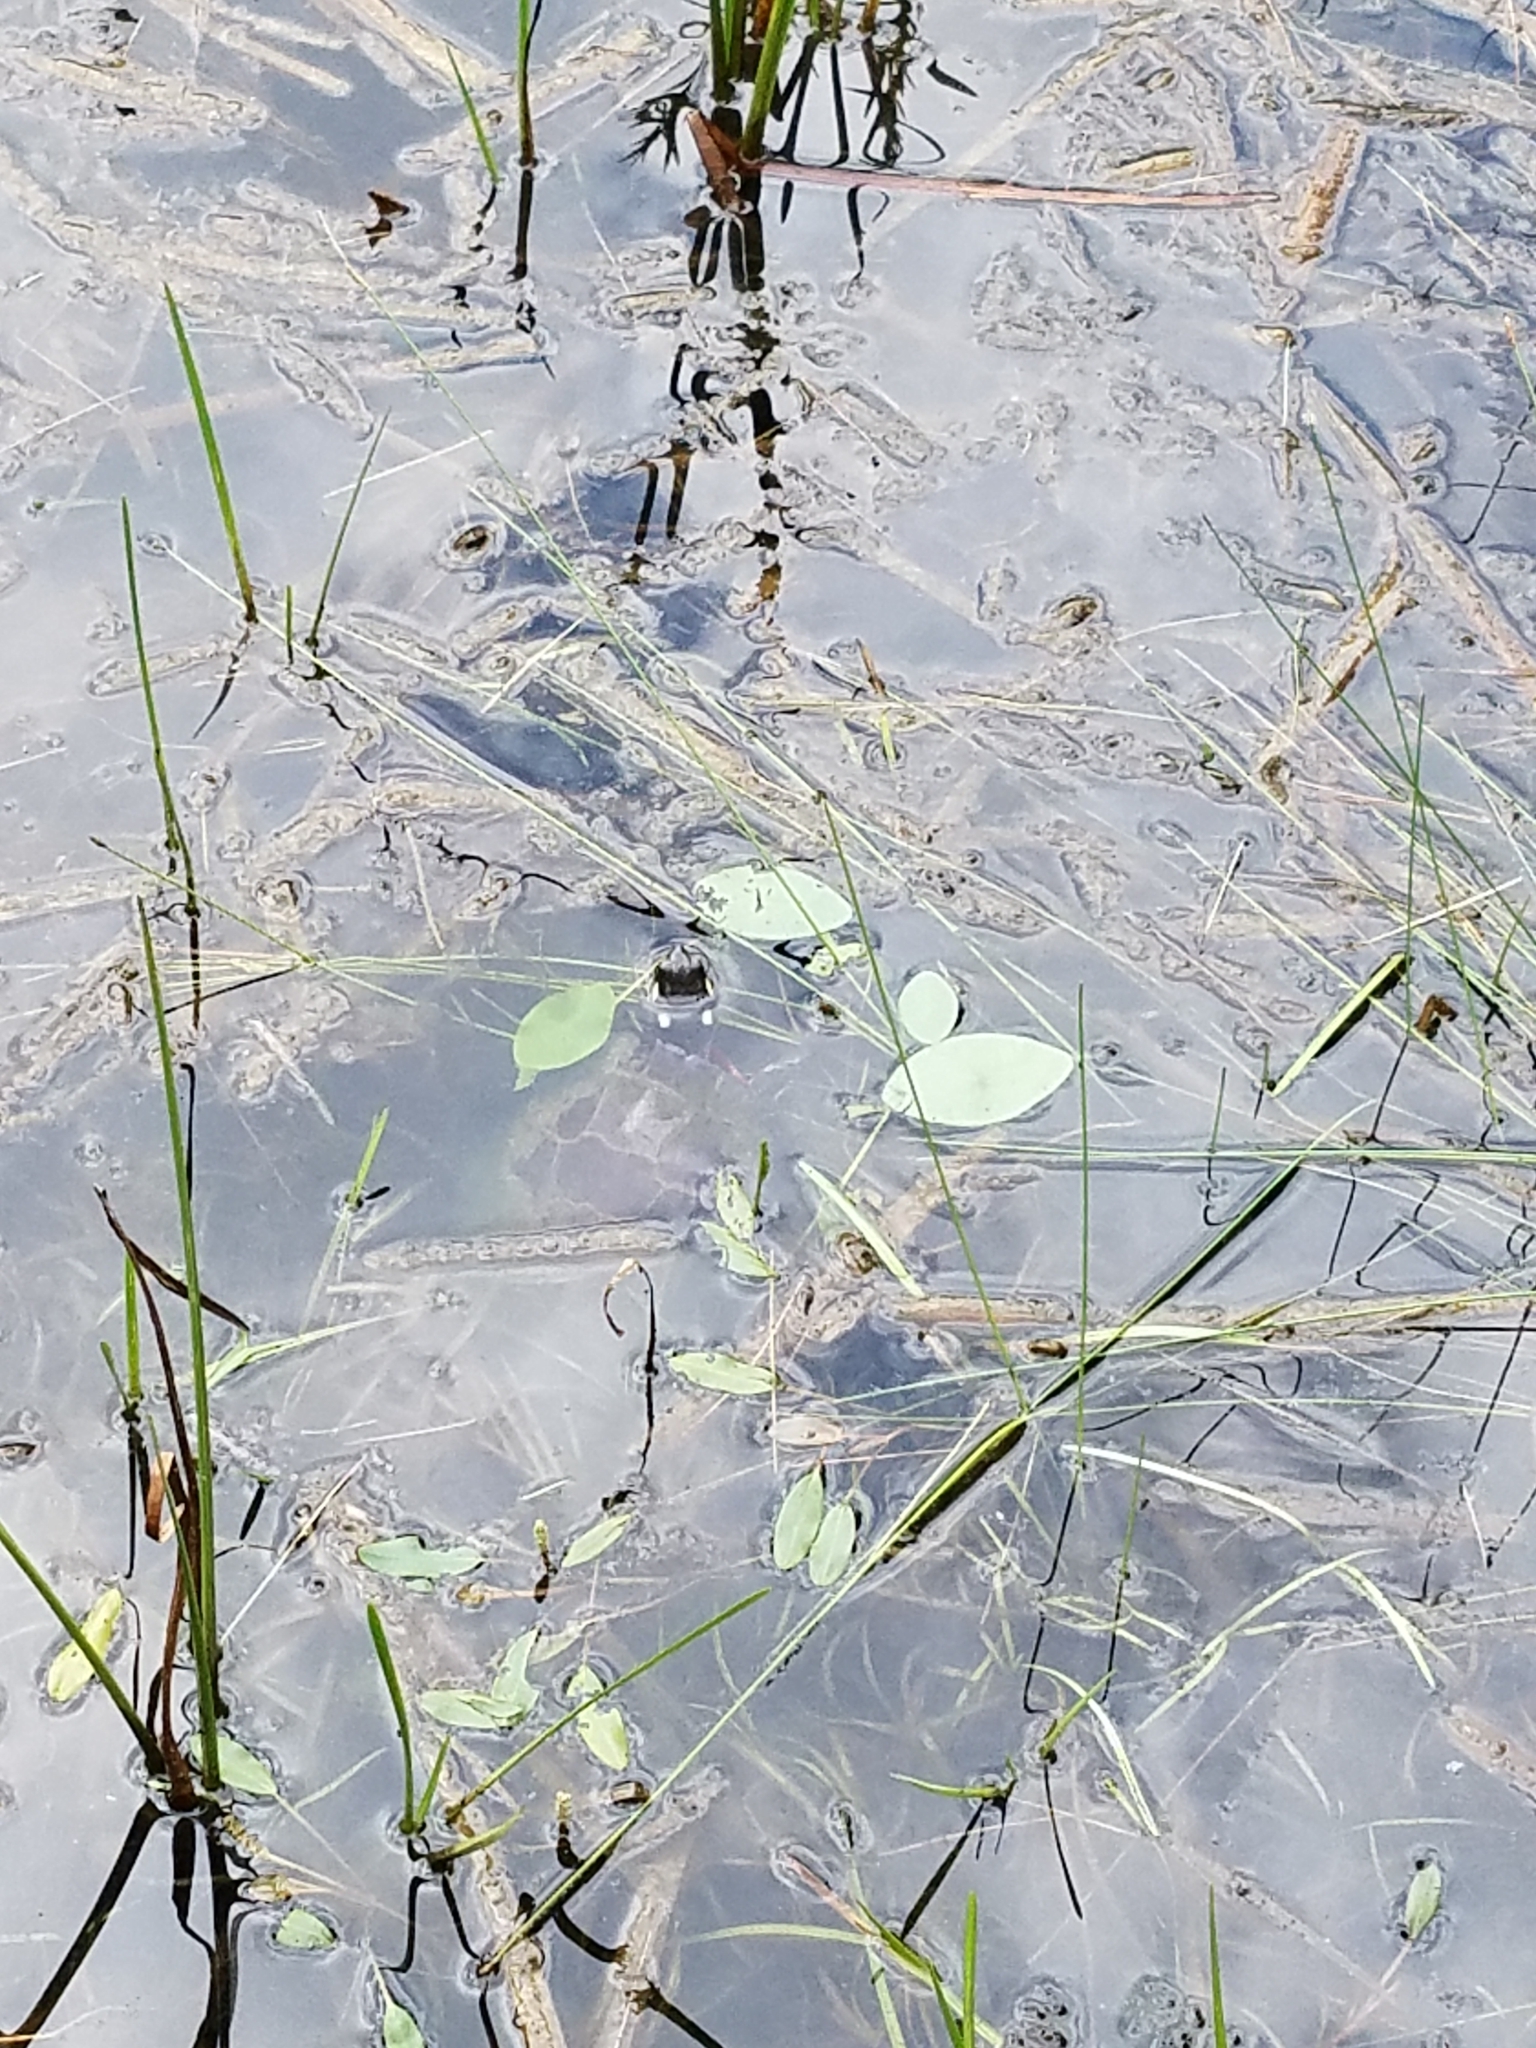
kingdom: Animalia
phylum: Chordata
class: Testudines
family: Emydidae
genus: Chrysemys
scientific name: Chrysemys picta
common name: Painted turtle
